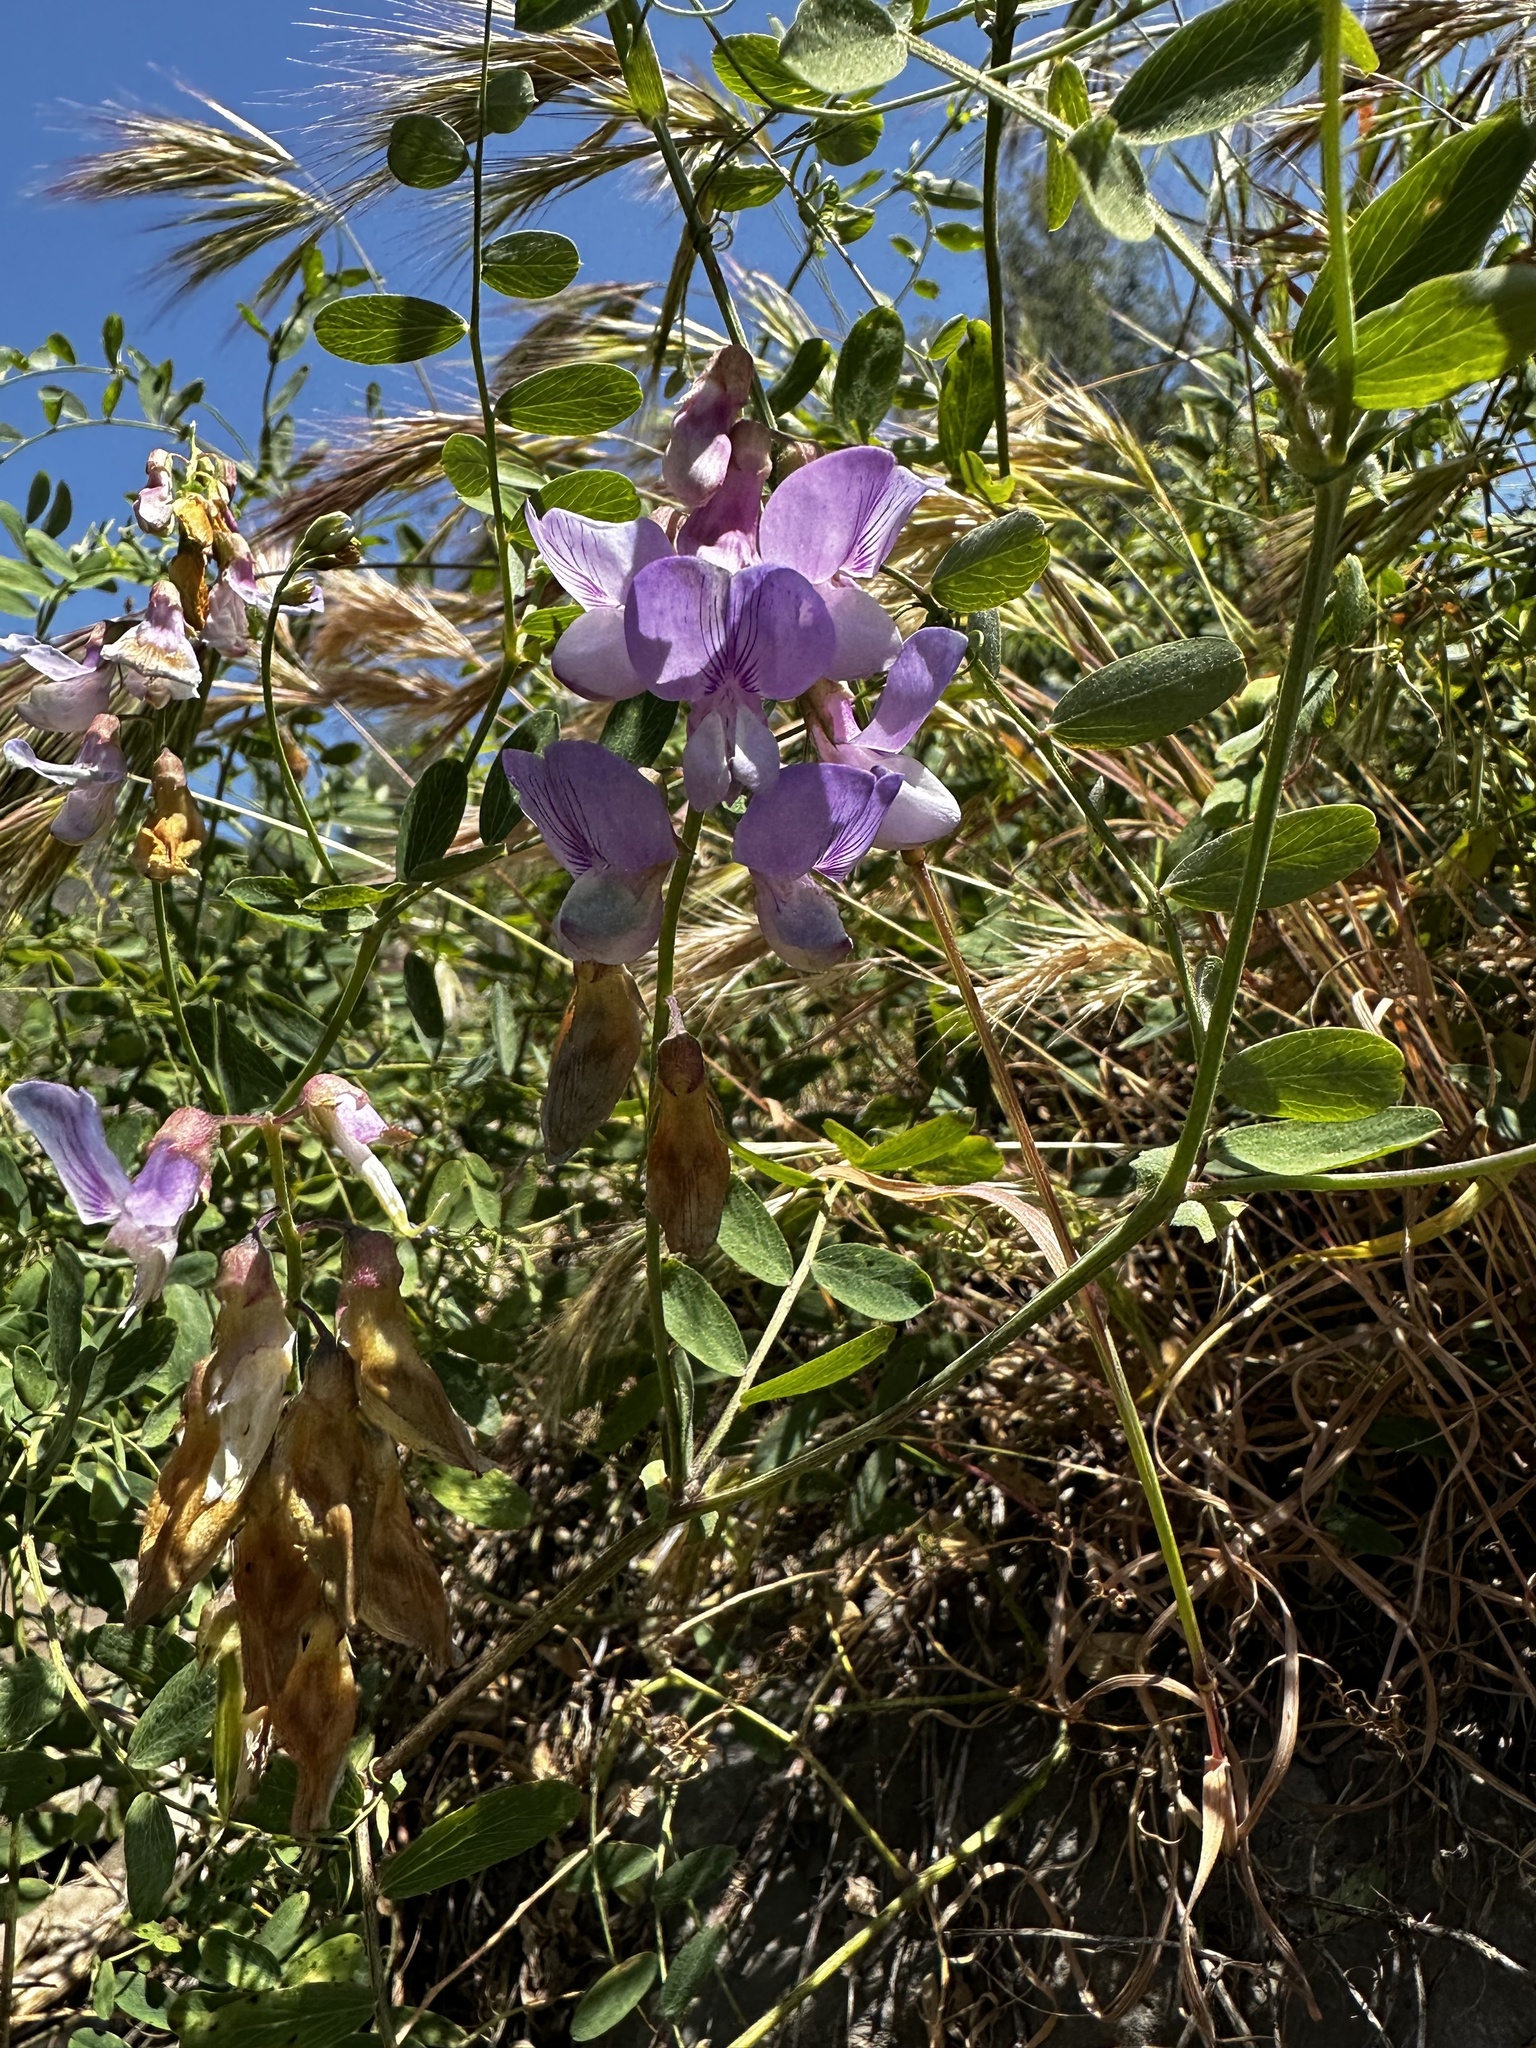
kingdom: Plantae
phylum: Tracheophyta
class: Magnoliopsida
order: Fabales
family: Fabaceae
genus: Lathyrus
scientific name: Lathyrus vestitus
